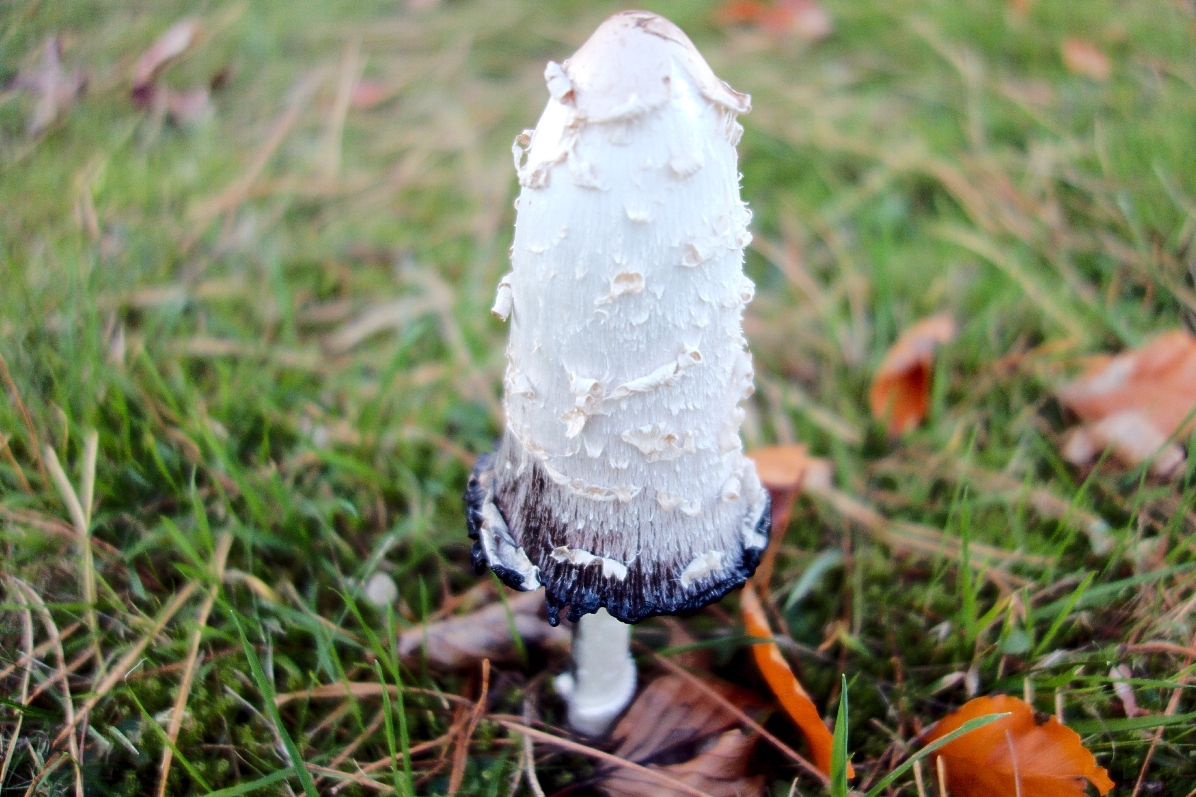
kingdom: Fungi
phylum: Basidiomycota
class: Agaricomycetes
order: Agaricales
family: Agaricaceae
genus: Coprinus
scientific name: Coprinus comatus
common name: Lawyer's wig
